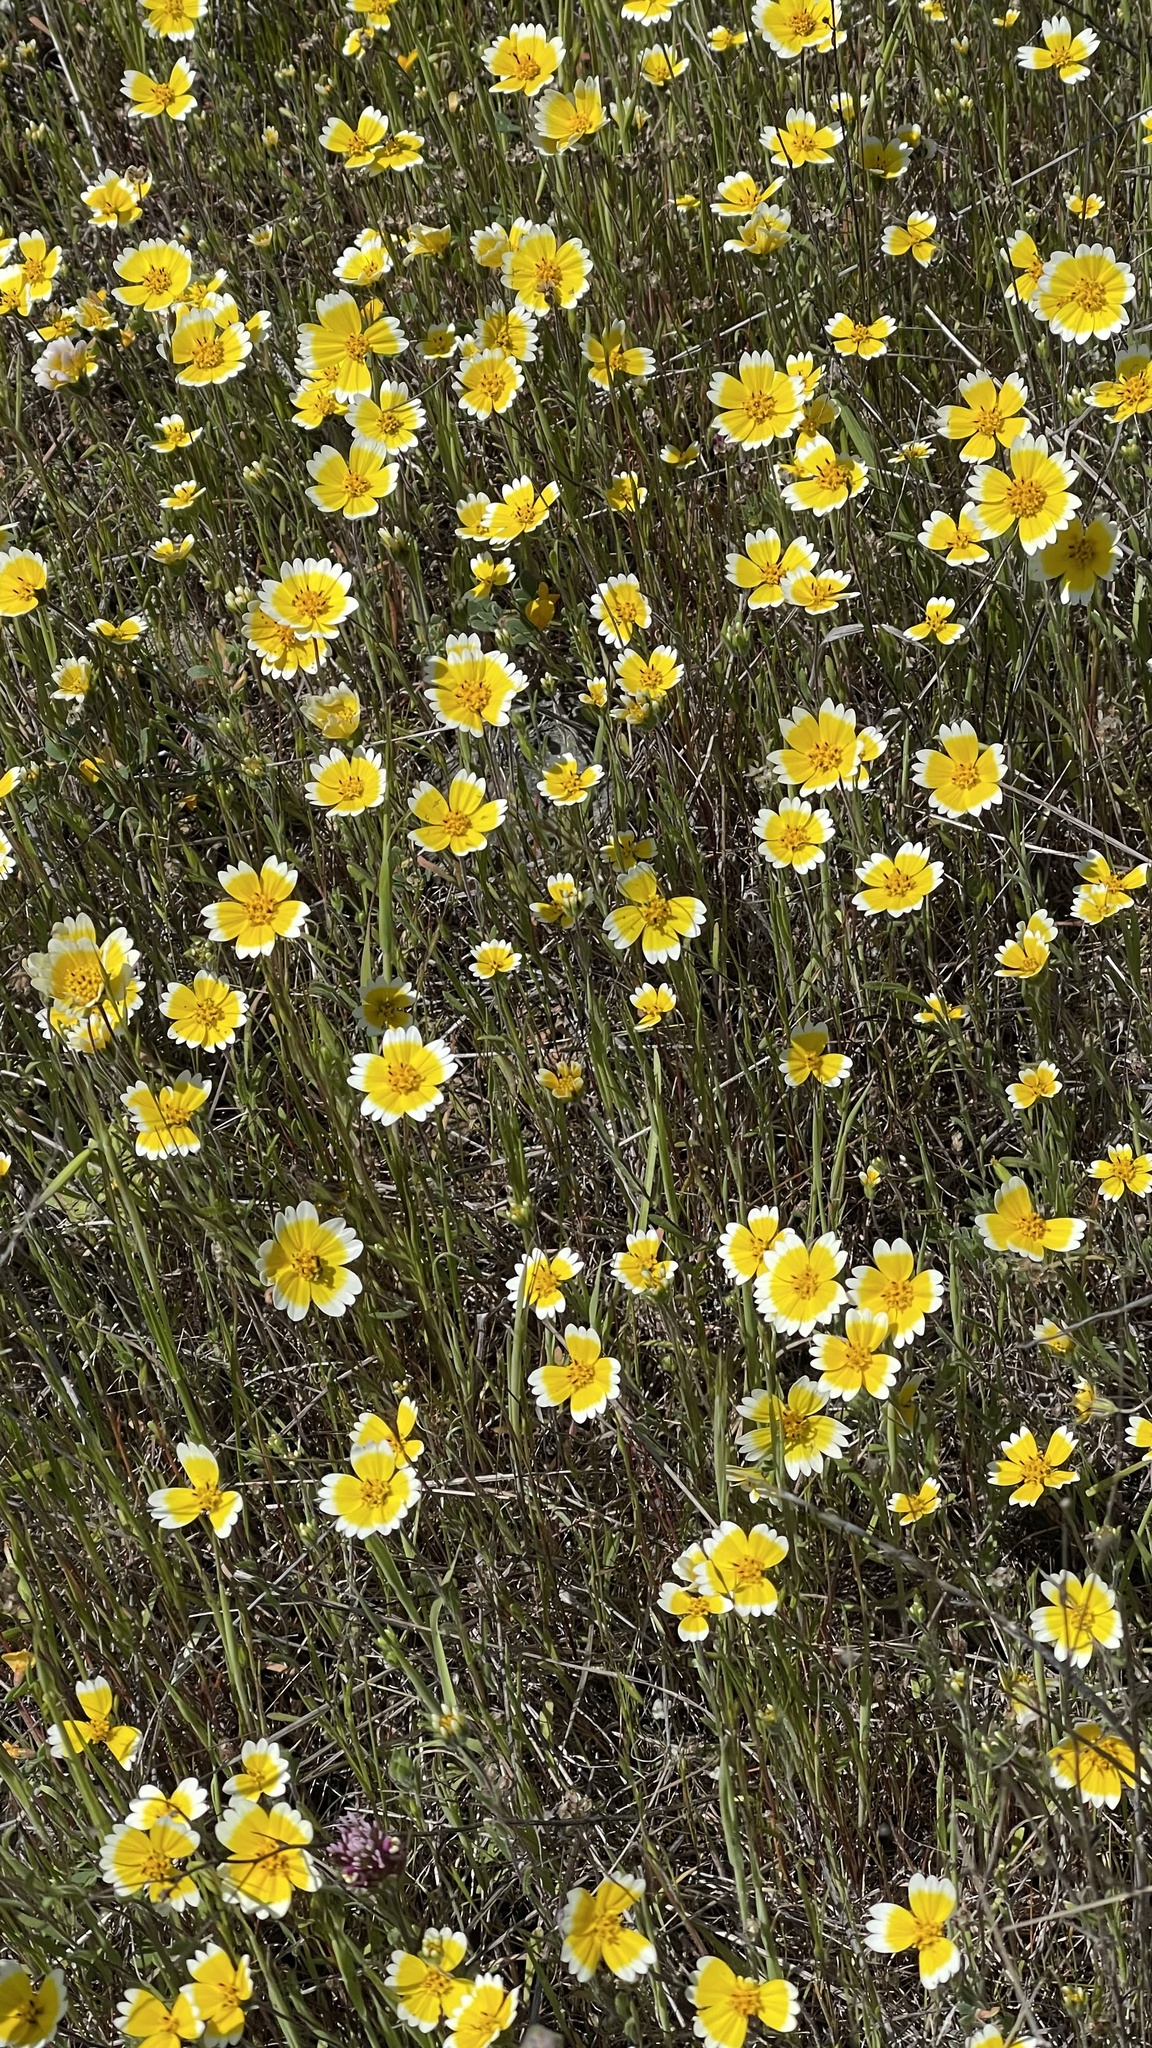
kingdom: Plantae
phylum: Tracheophyta
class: Magnoliopsida
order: Asterales
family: Asteraceae
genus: Layia
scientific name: Layia platyglossa
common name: Tidy-tips
